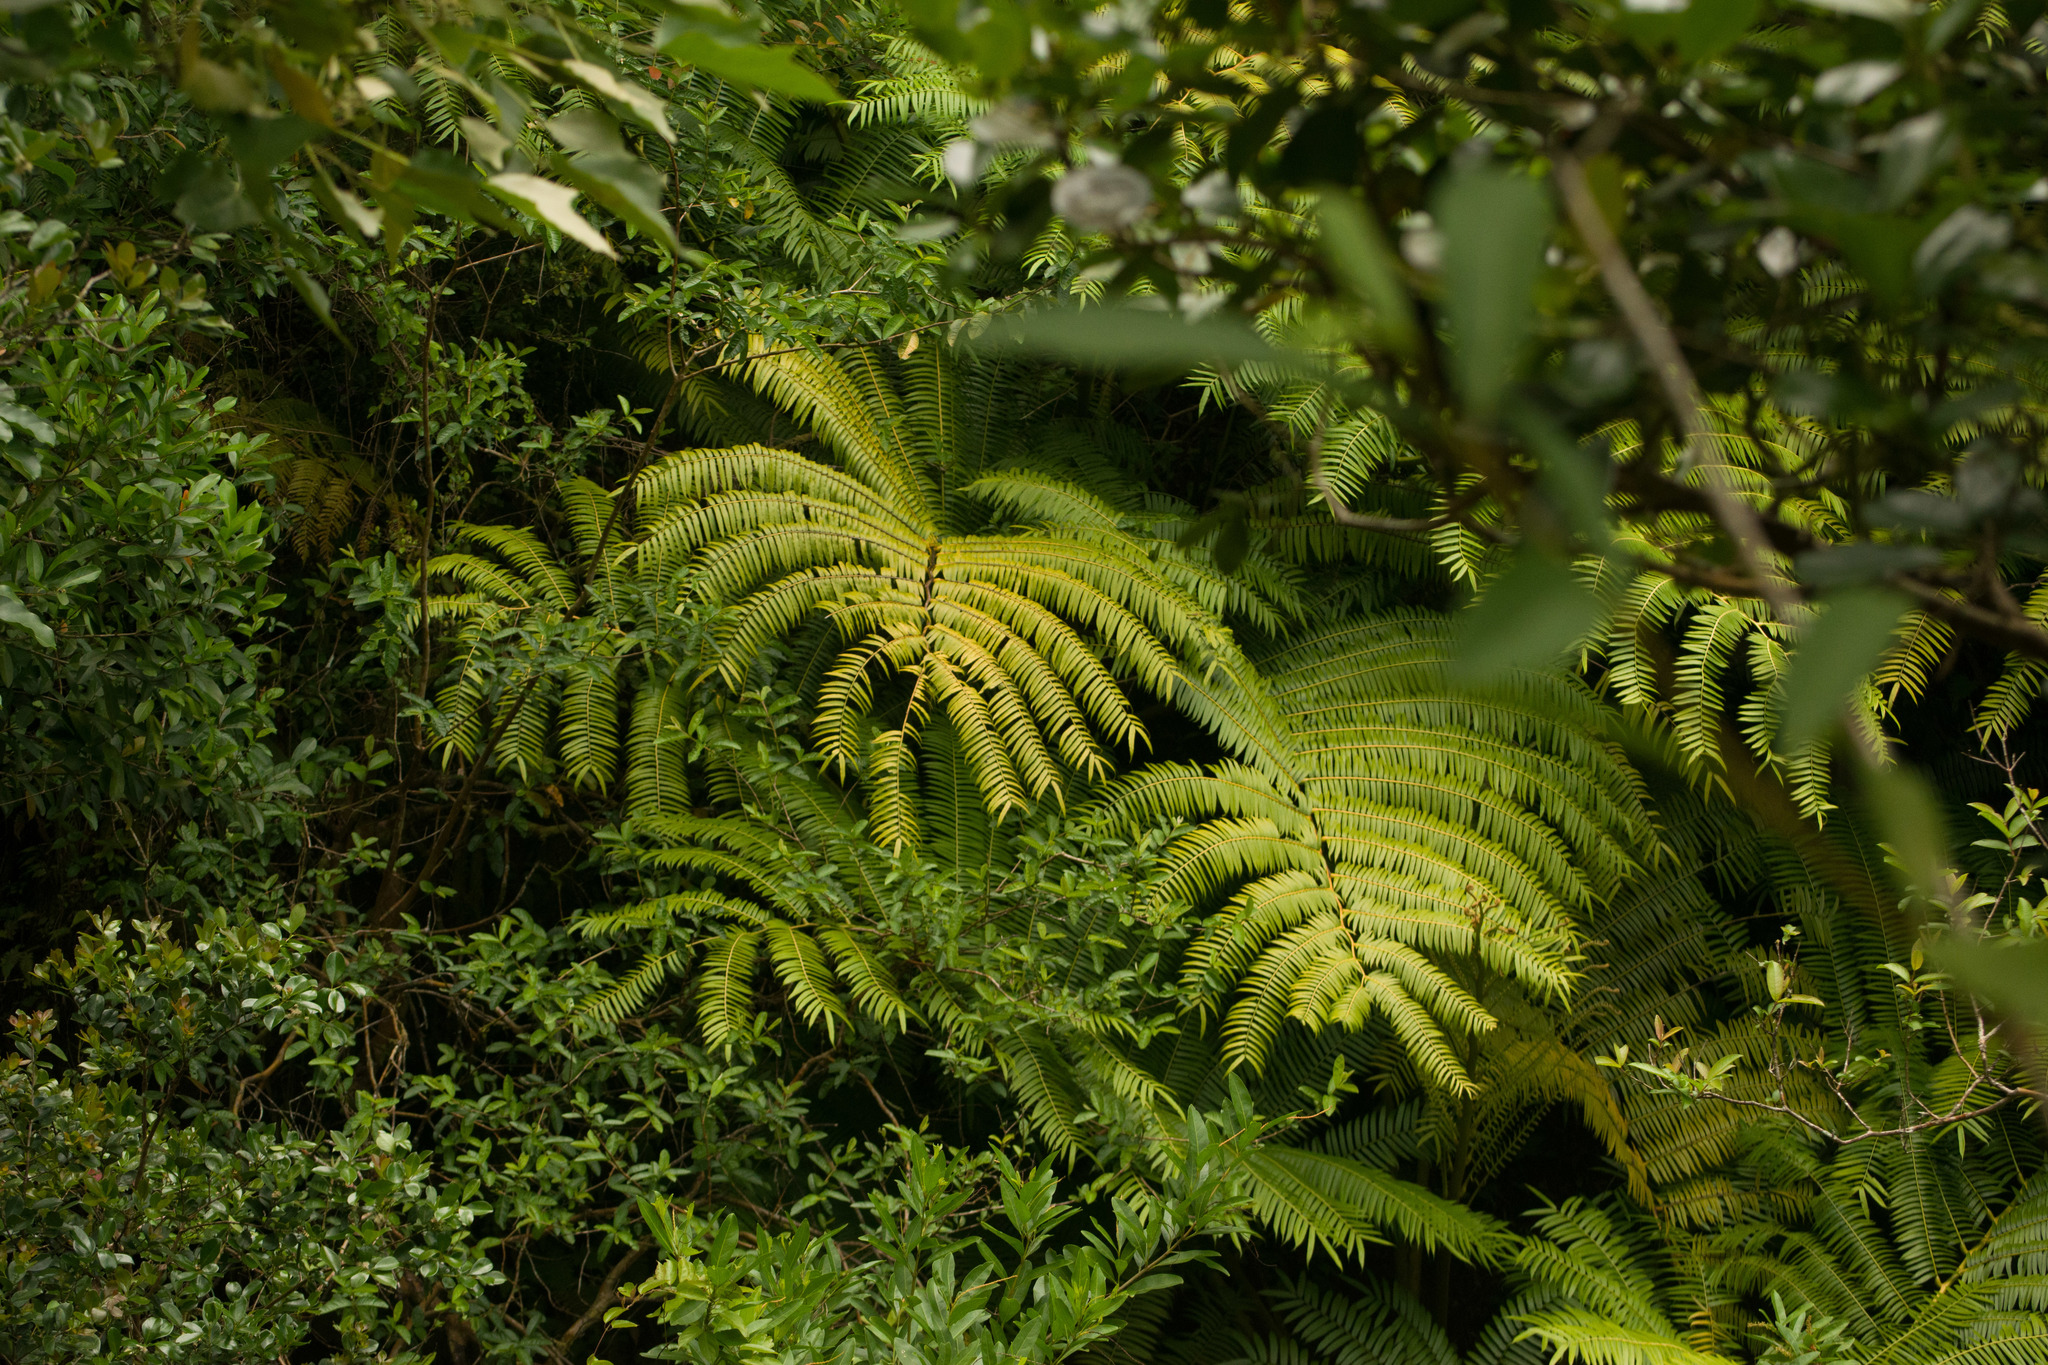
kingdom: Plantae
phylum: Tracheophyta
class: Polypodiopsida
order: Marattiales
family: Marattiaceae
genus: Angiopteris
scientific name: Angiopteris evecta
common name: Mule's-foot fern
